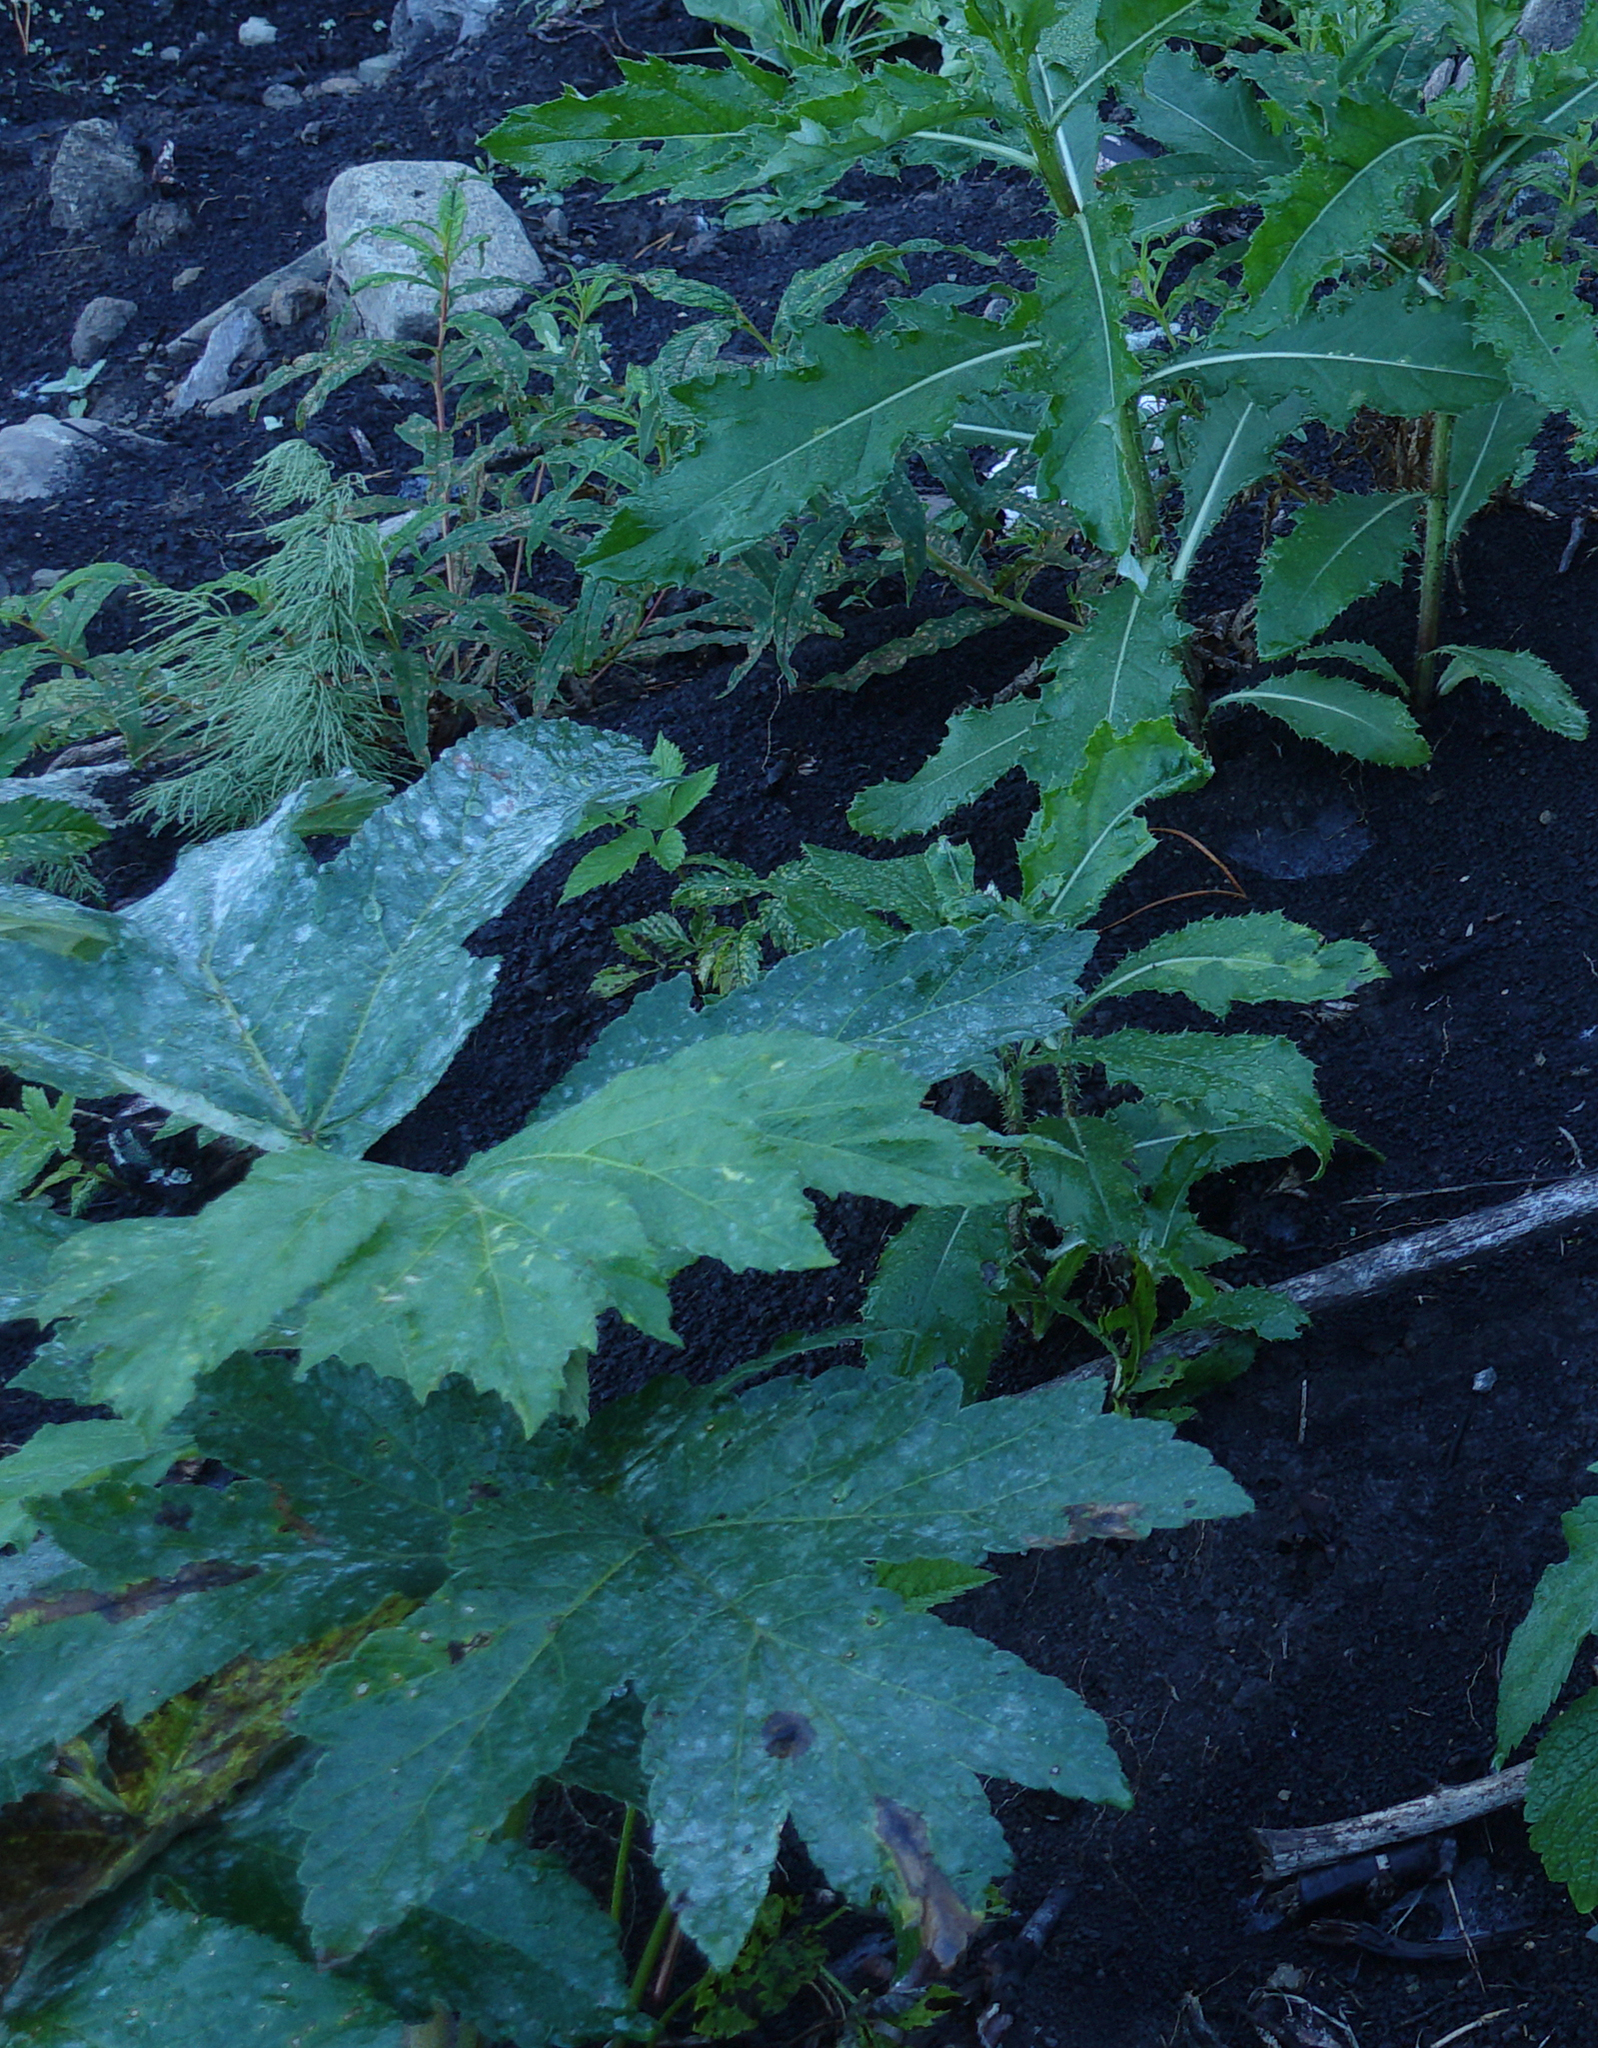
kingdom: Plantae
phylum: Tracheophyta
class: Magnoliopsida
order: Apiales
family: Apiaceae
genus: Heracleum
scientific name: Heracleum dissectum
